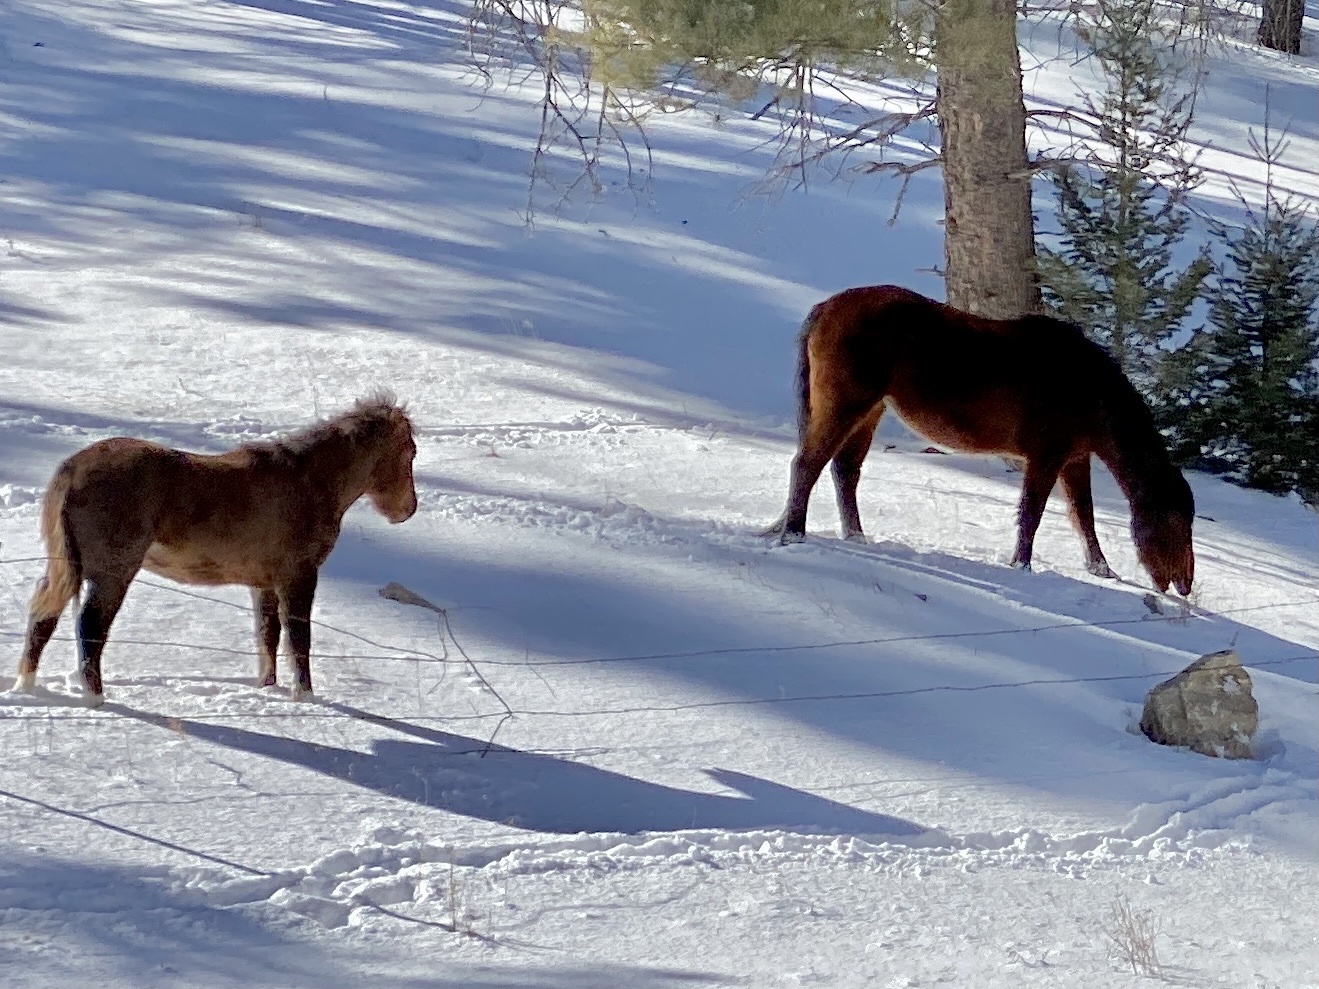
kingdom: Animalia
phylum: Chordata
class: Mammalia
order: Perissodactyla
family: Equidae
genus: Equus
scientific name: Equus caballus
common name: Horse
